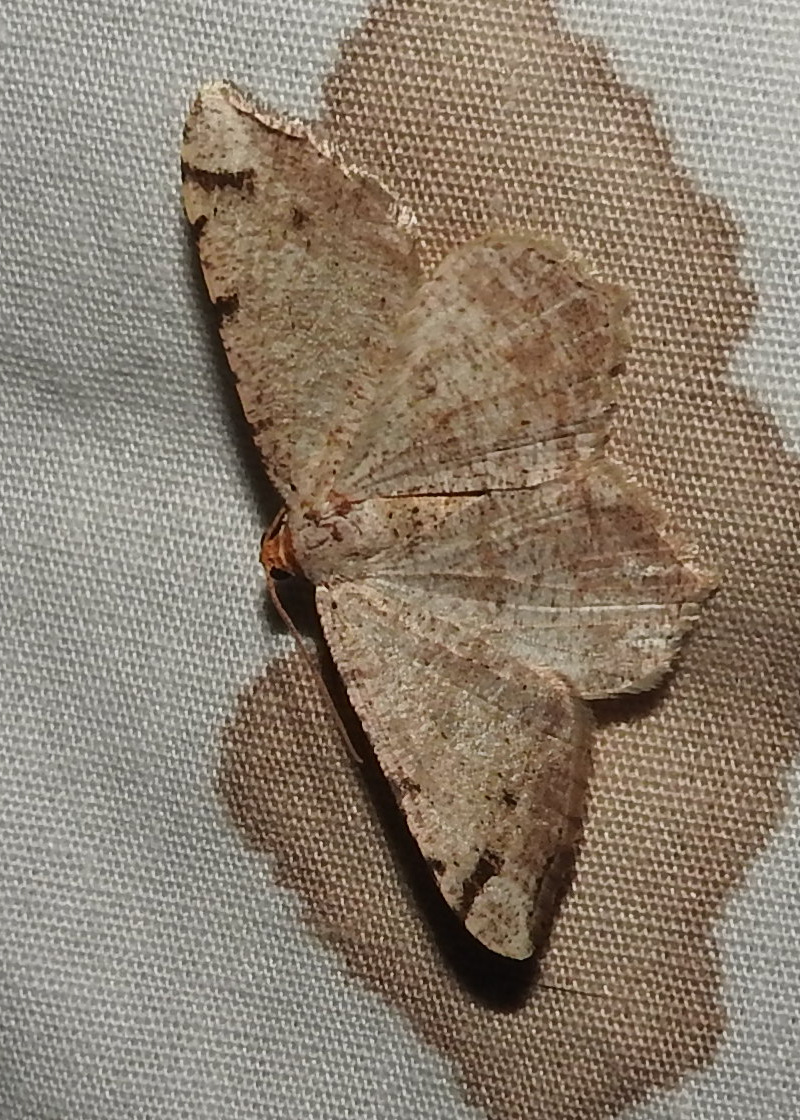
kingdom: Animalia
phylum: Arthropoda
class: Insecta
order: Lepidoptera
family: Geometridae
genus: Macaria
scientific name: Macaria bisignata
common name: Red-headed inchworm
